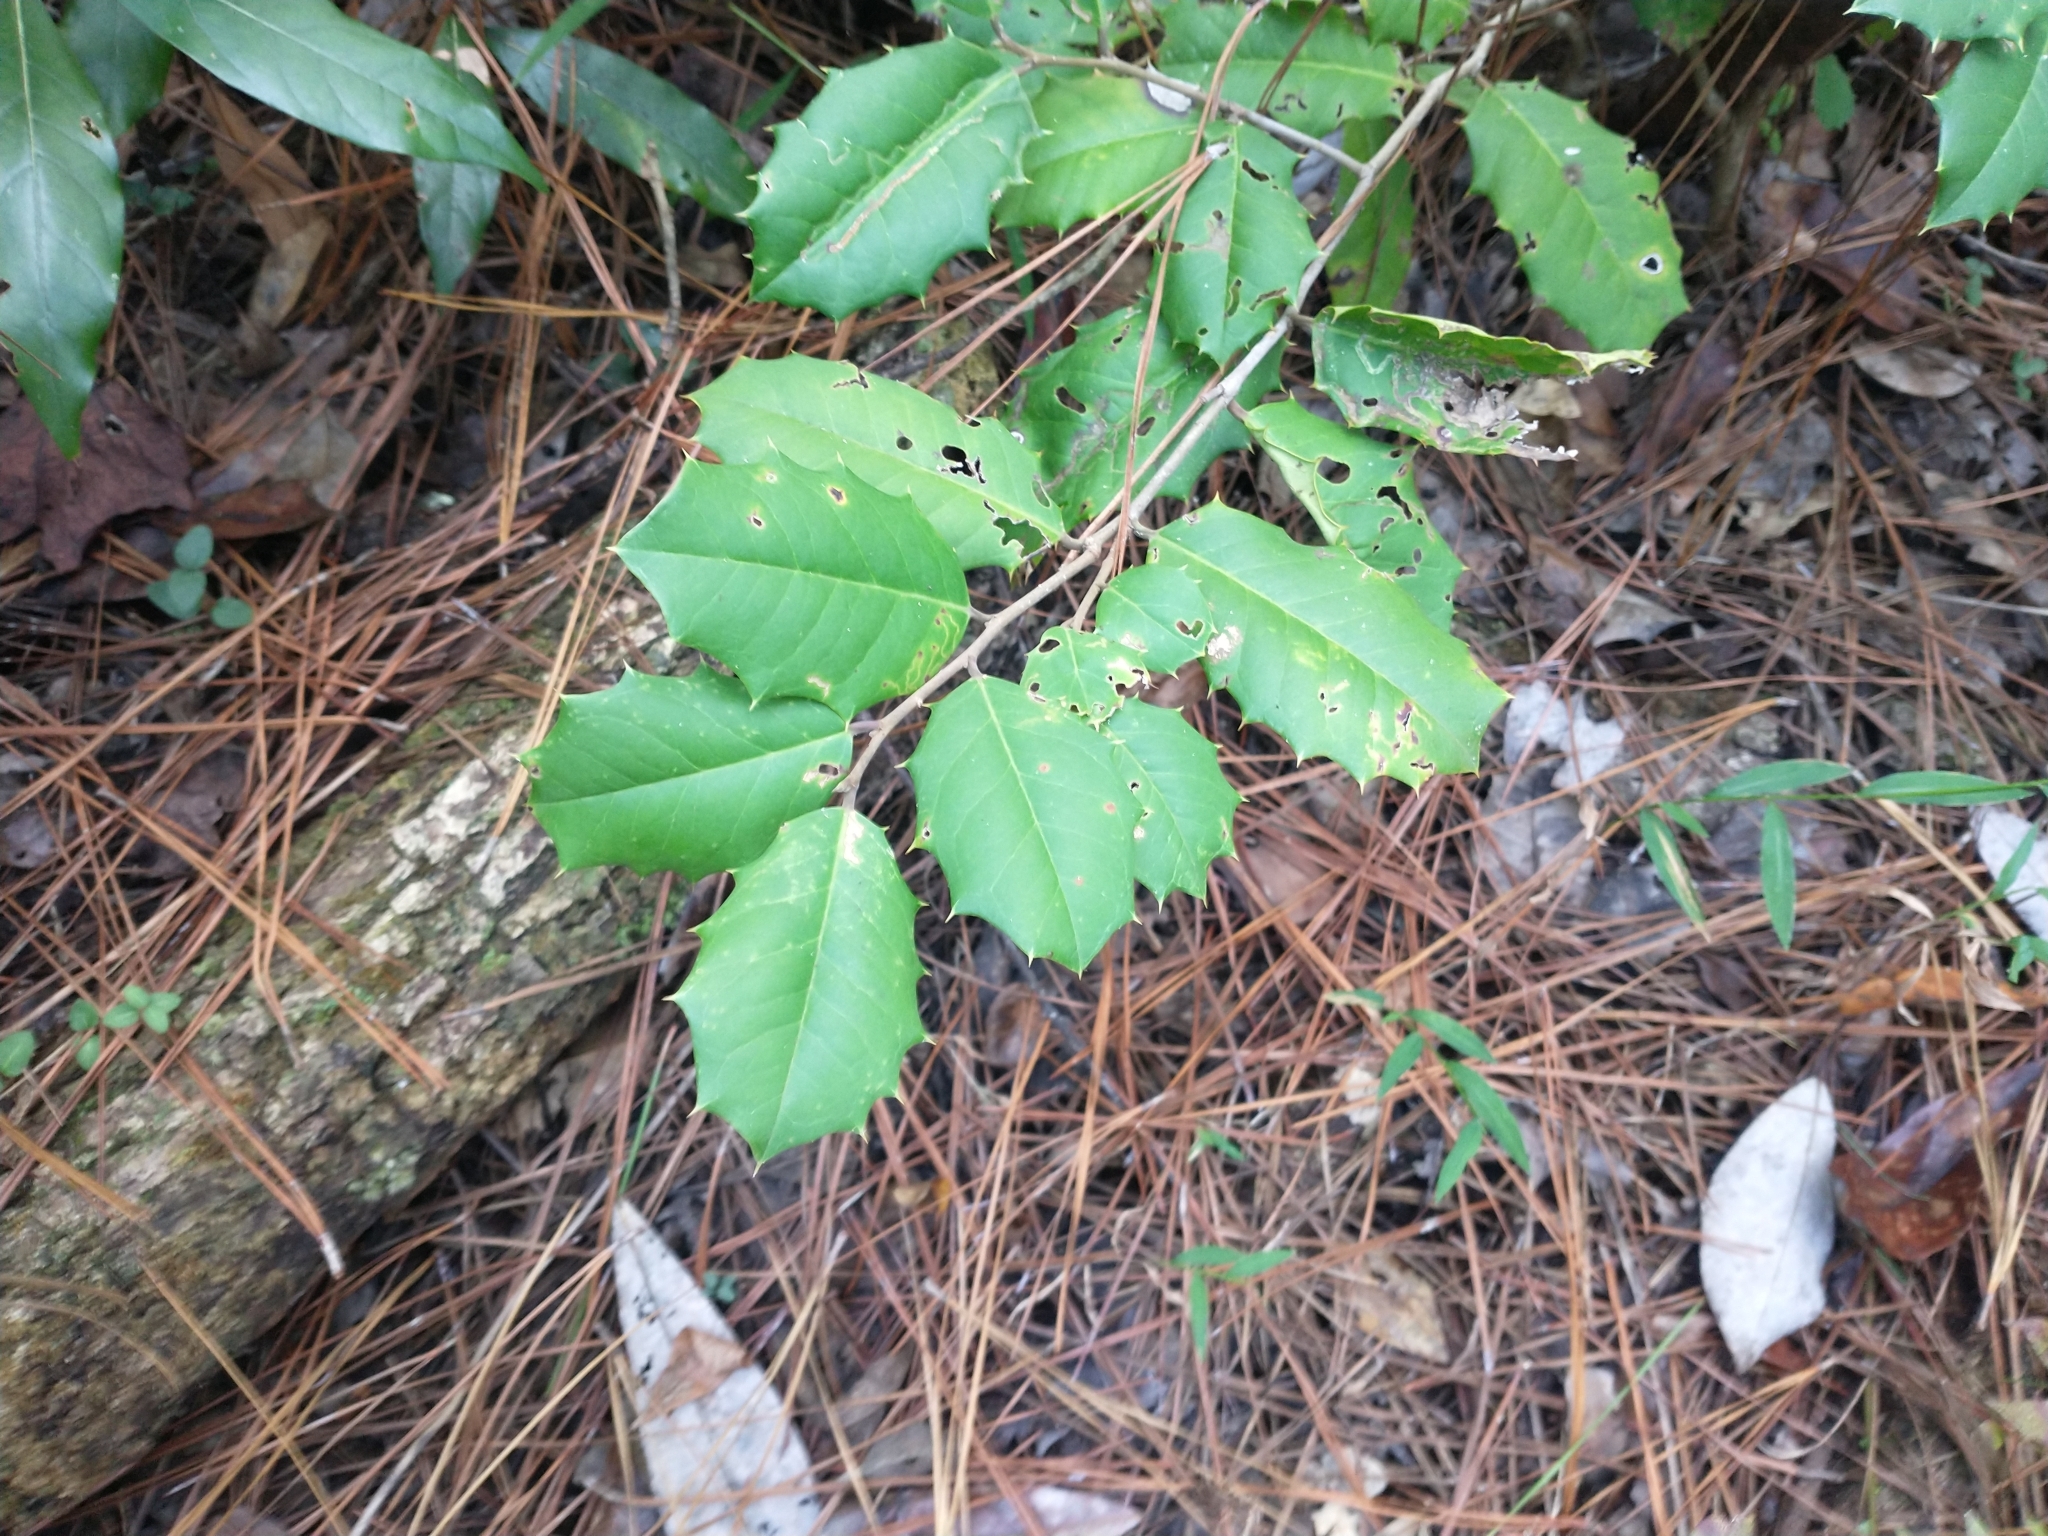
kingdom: Plantae
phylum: Tracheophyta
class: Magnoliopsida
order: Aquifoliales
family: Aquifoliaceae
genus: Ilex
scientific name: Ilex opaca
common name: American holly
